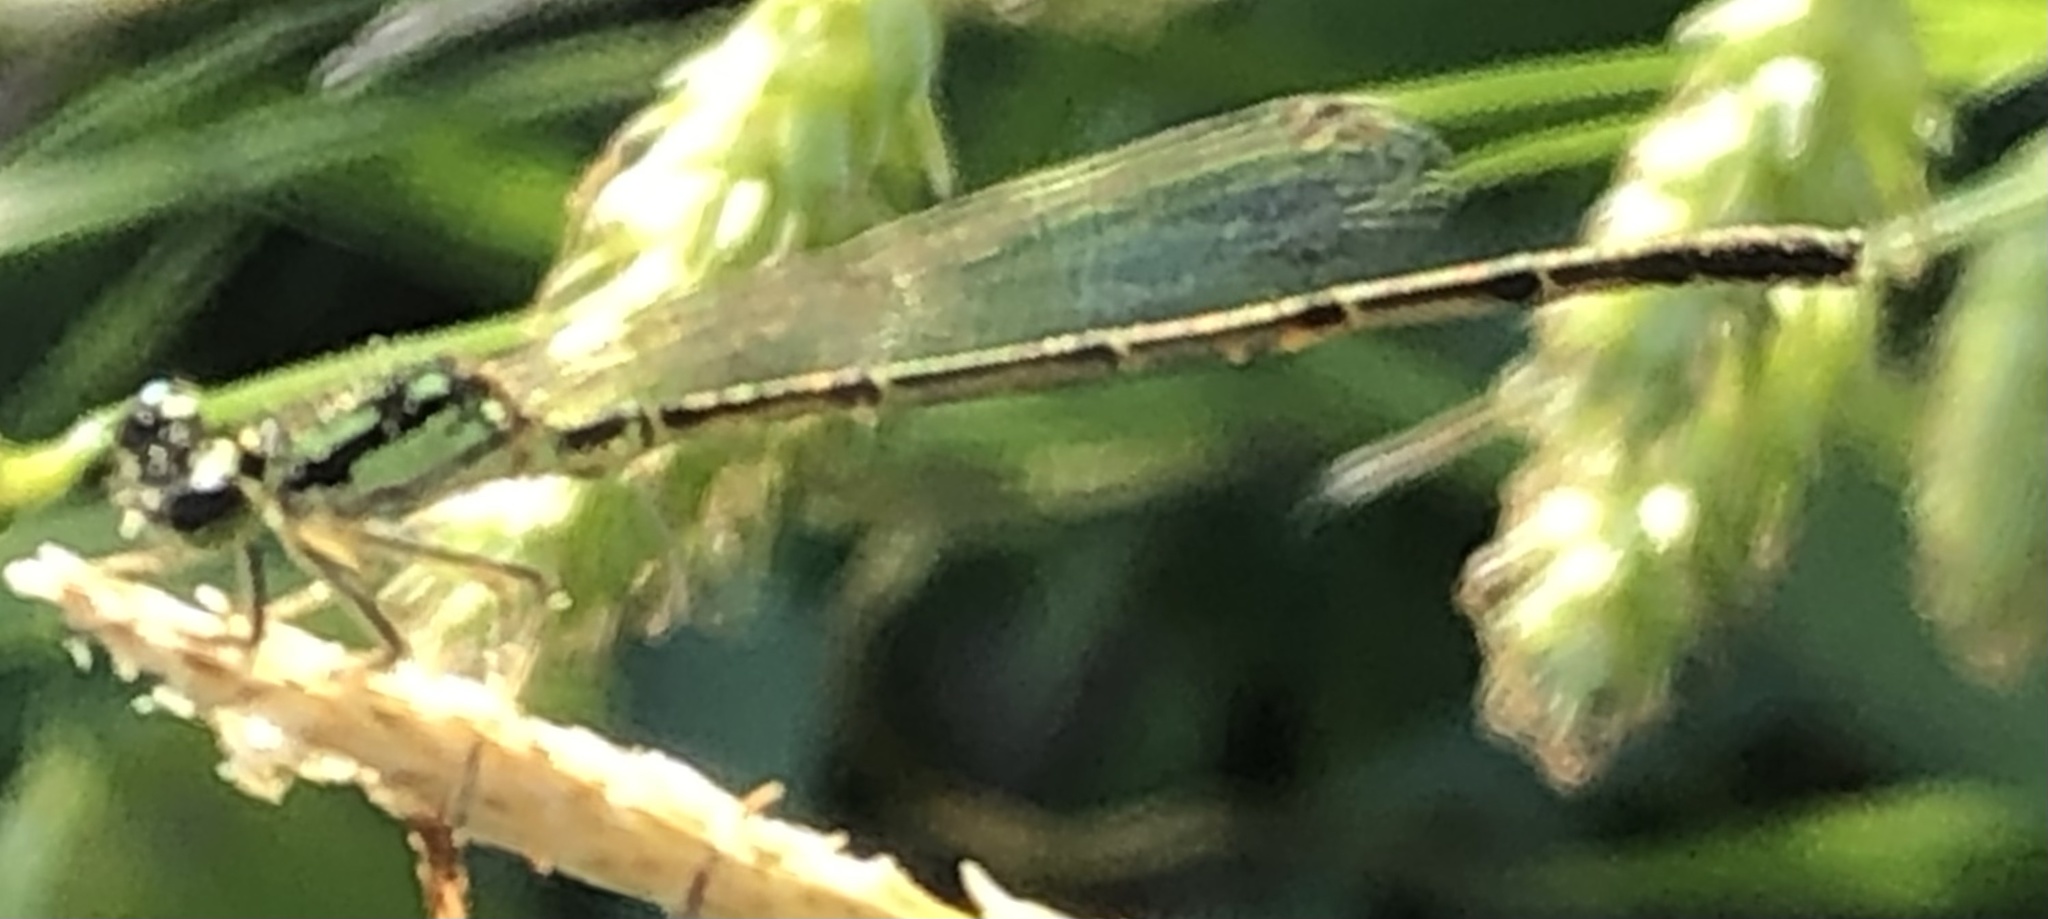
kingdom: Animalia
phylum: Arthropoda
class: Insecta
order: Odonata
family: Coenagrionidae
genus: Ischnura
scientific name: Ischnura posita
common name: Fragile forktail
